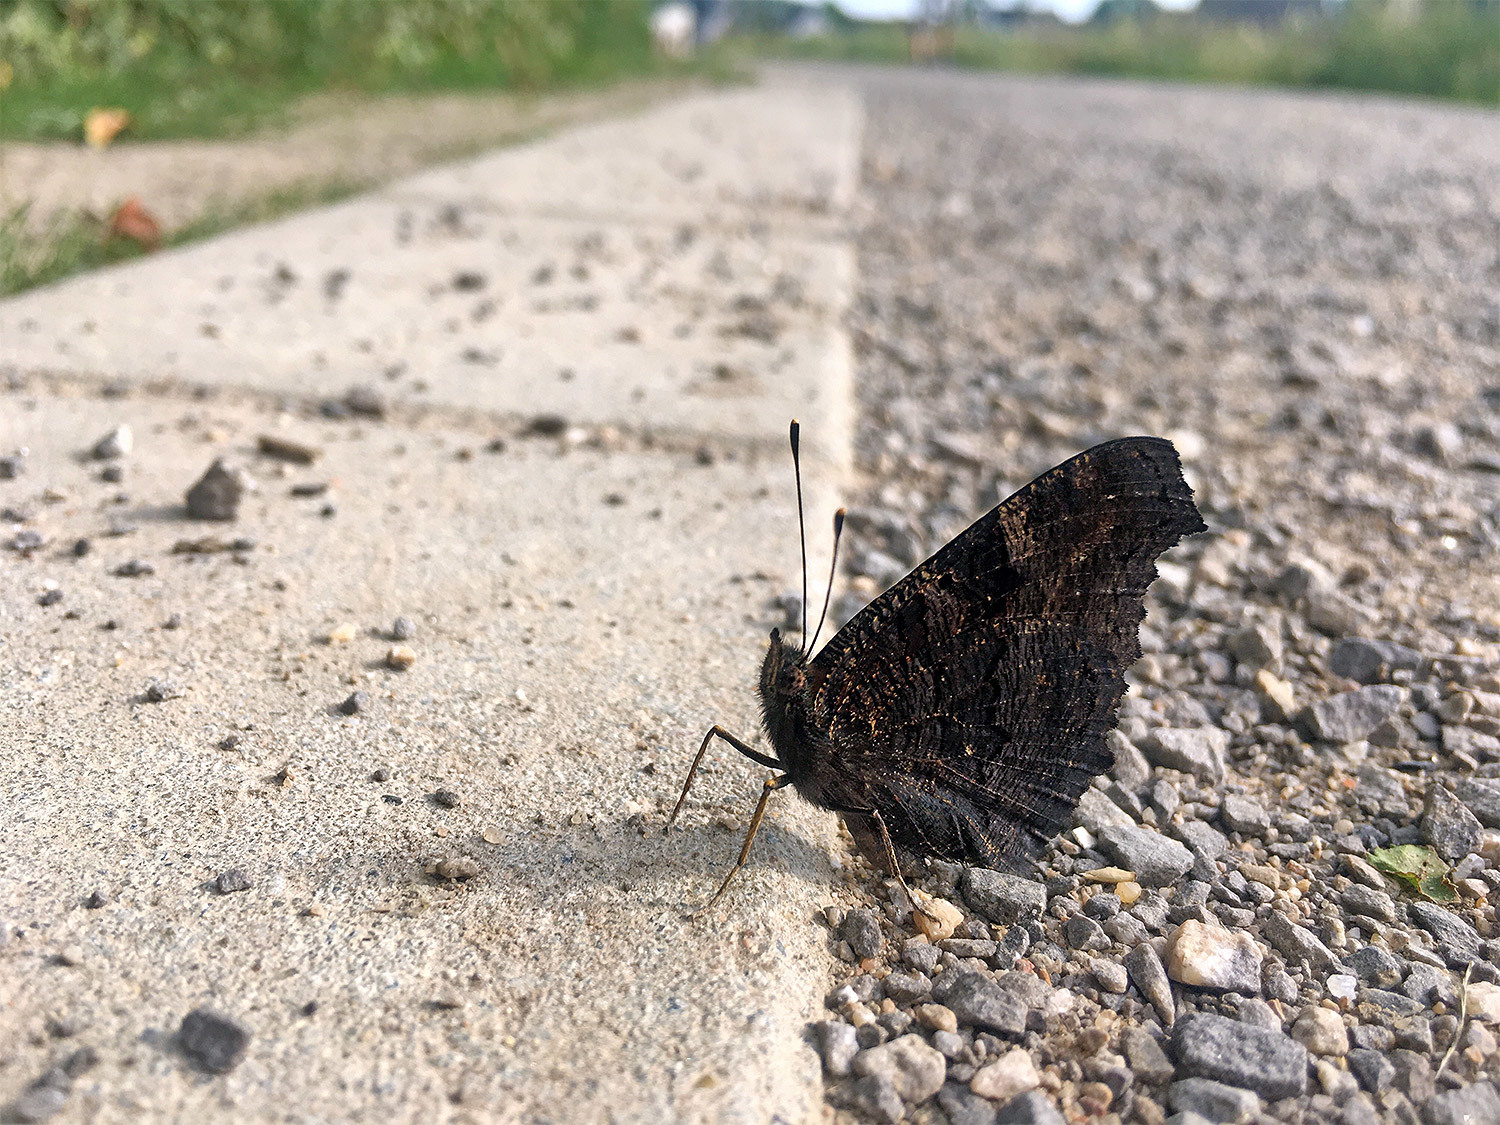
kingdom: Animalia
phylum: Arthropoda
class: Insecta
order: Lepidoptera
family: Nymphalidae
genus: Aglais
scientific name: Aglais io
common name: Peacock
